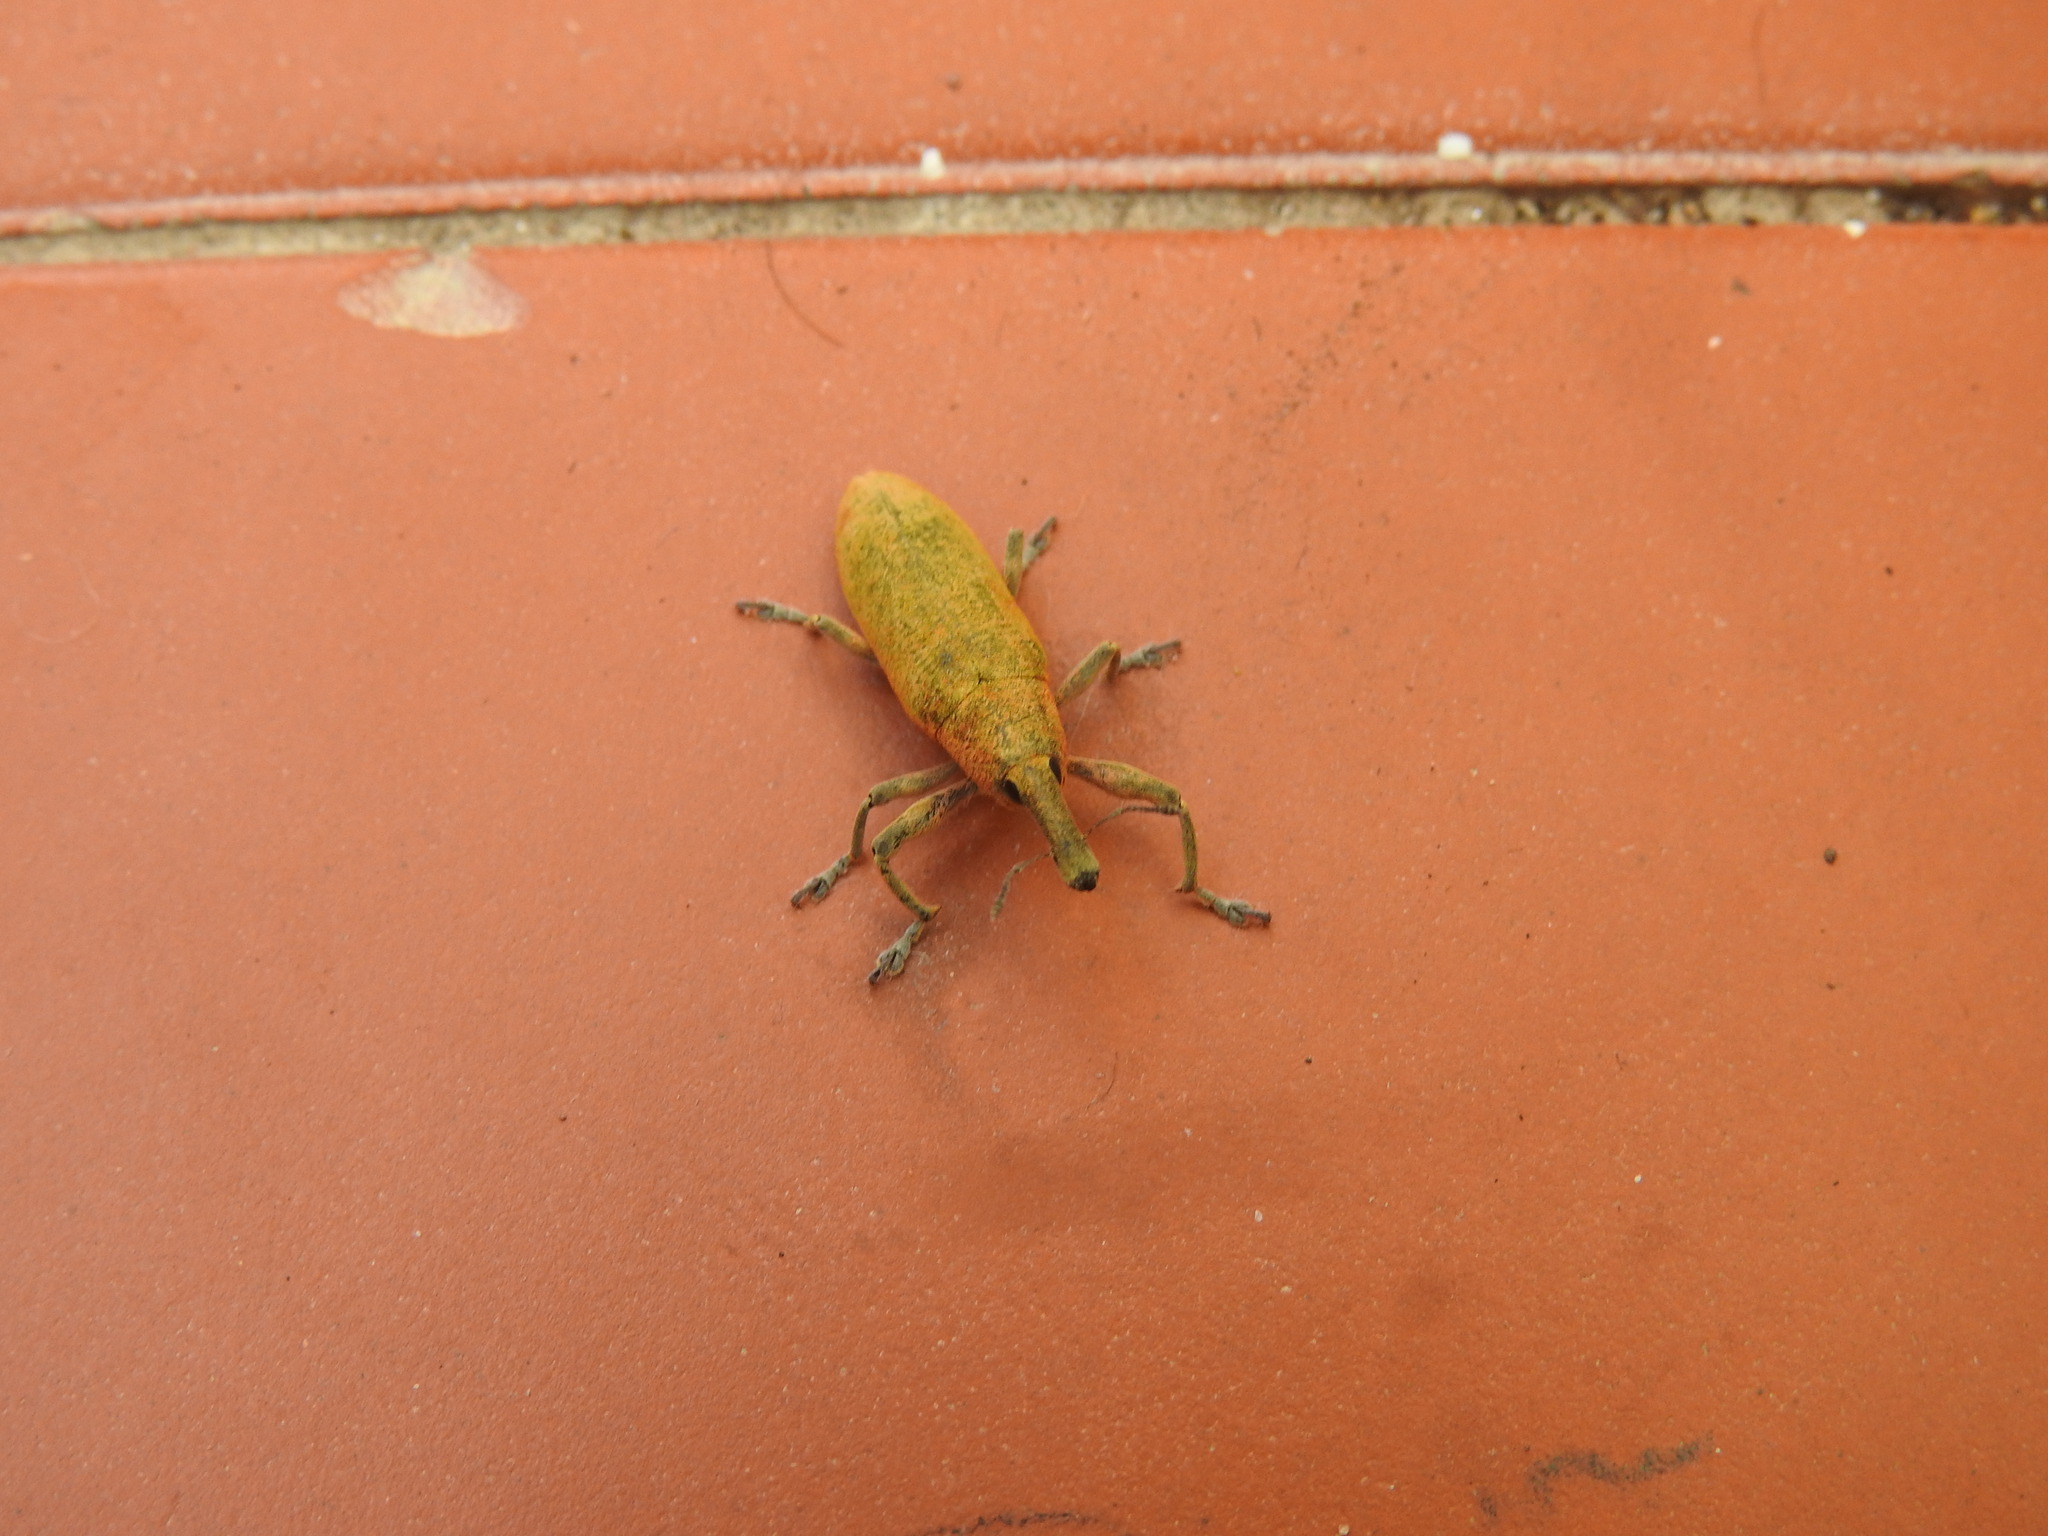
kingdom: Animalia
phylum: Arthropoda
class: Insecta
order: Coleoptera
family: Curculionidae
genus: Lixus
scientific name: Lixus pulverulentus
